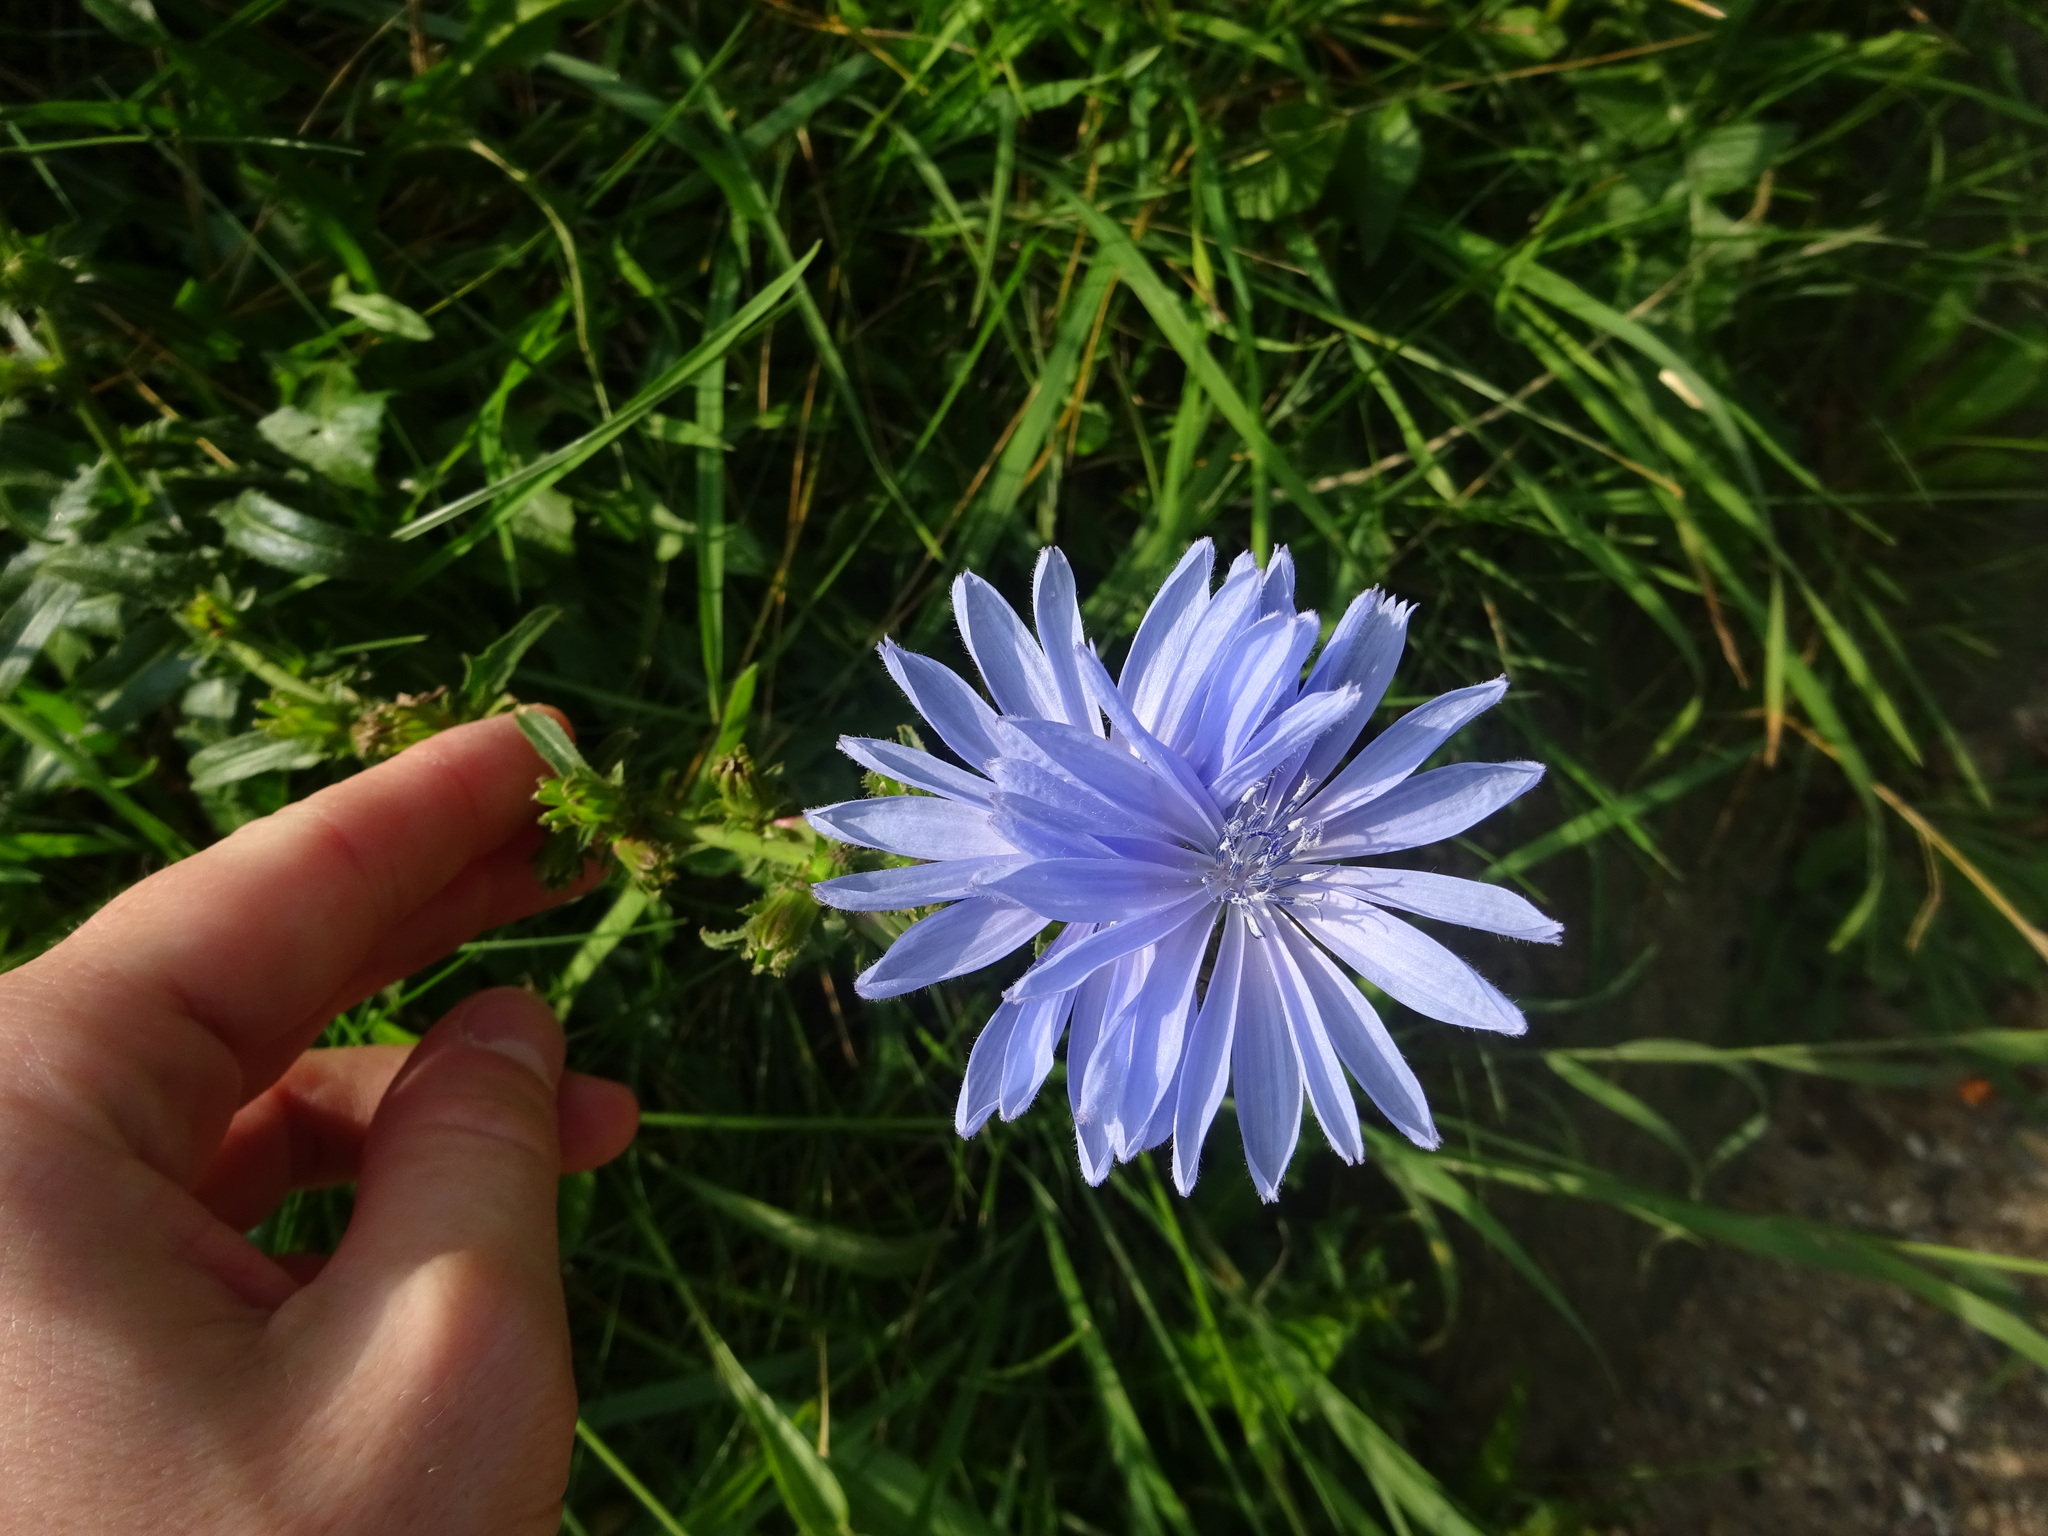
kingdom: Plantae
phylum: Tracheophyta
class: Magnoliopsida
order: Asterales
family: Asteraceae
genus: Cichorium
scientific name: Cichorium intybus
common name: Chicory
